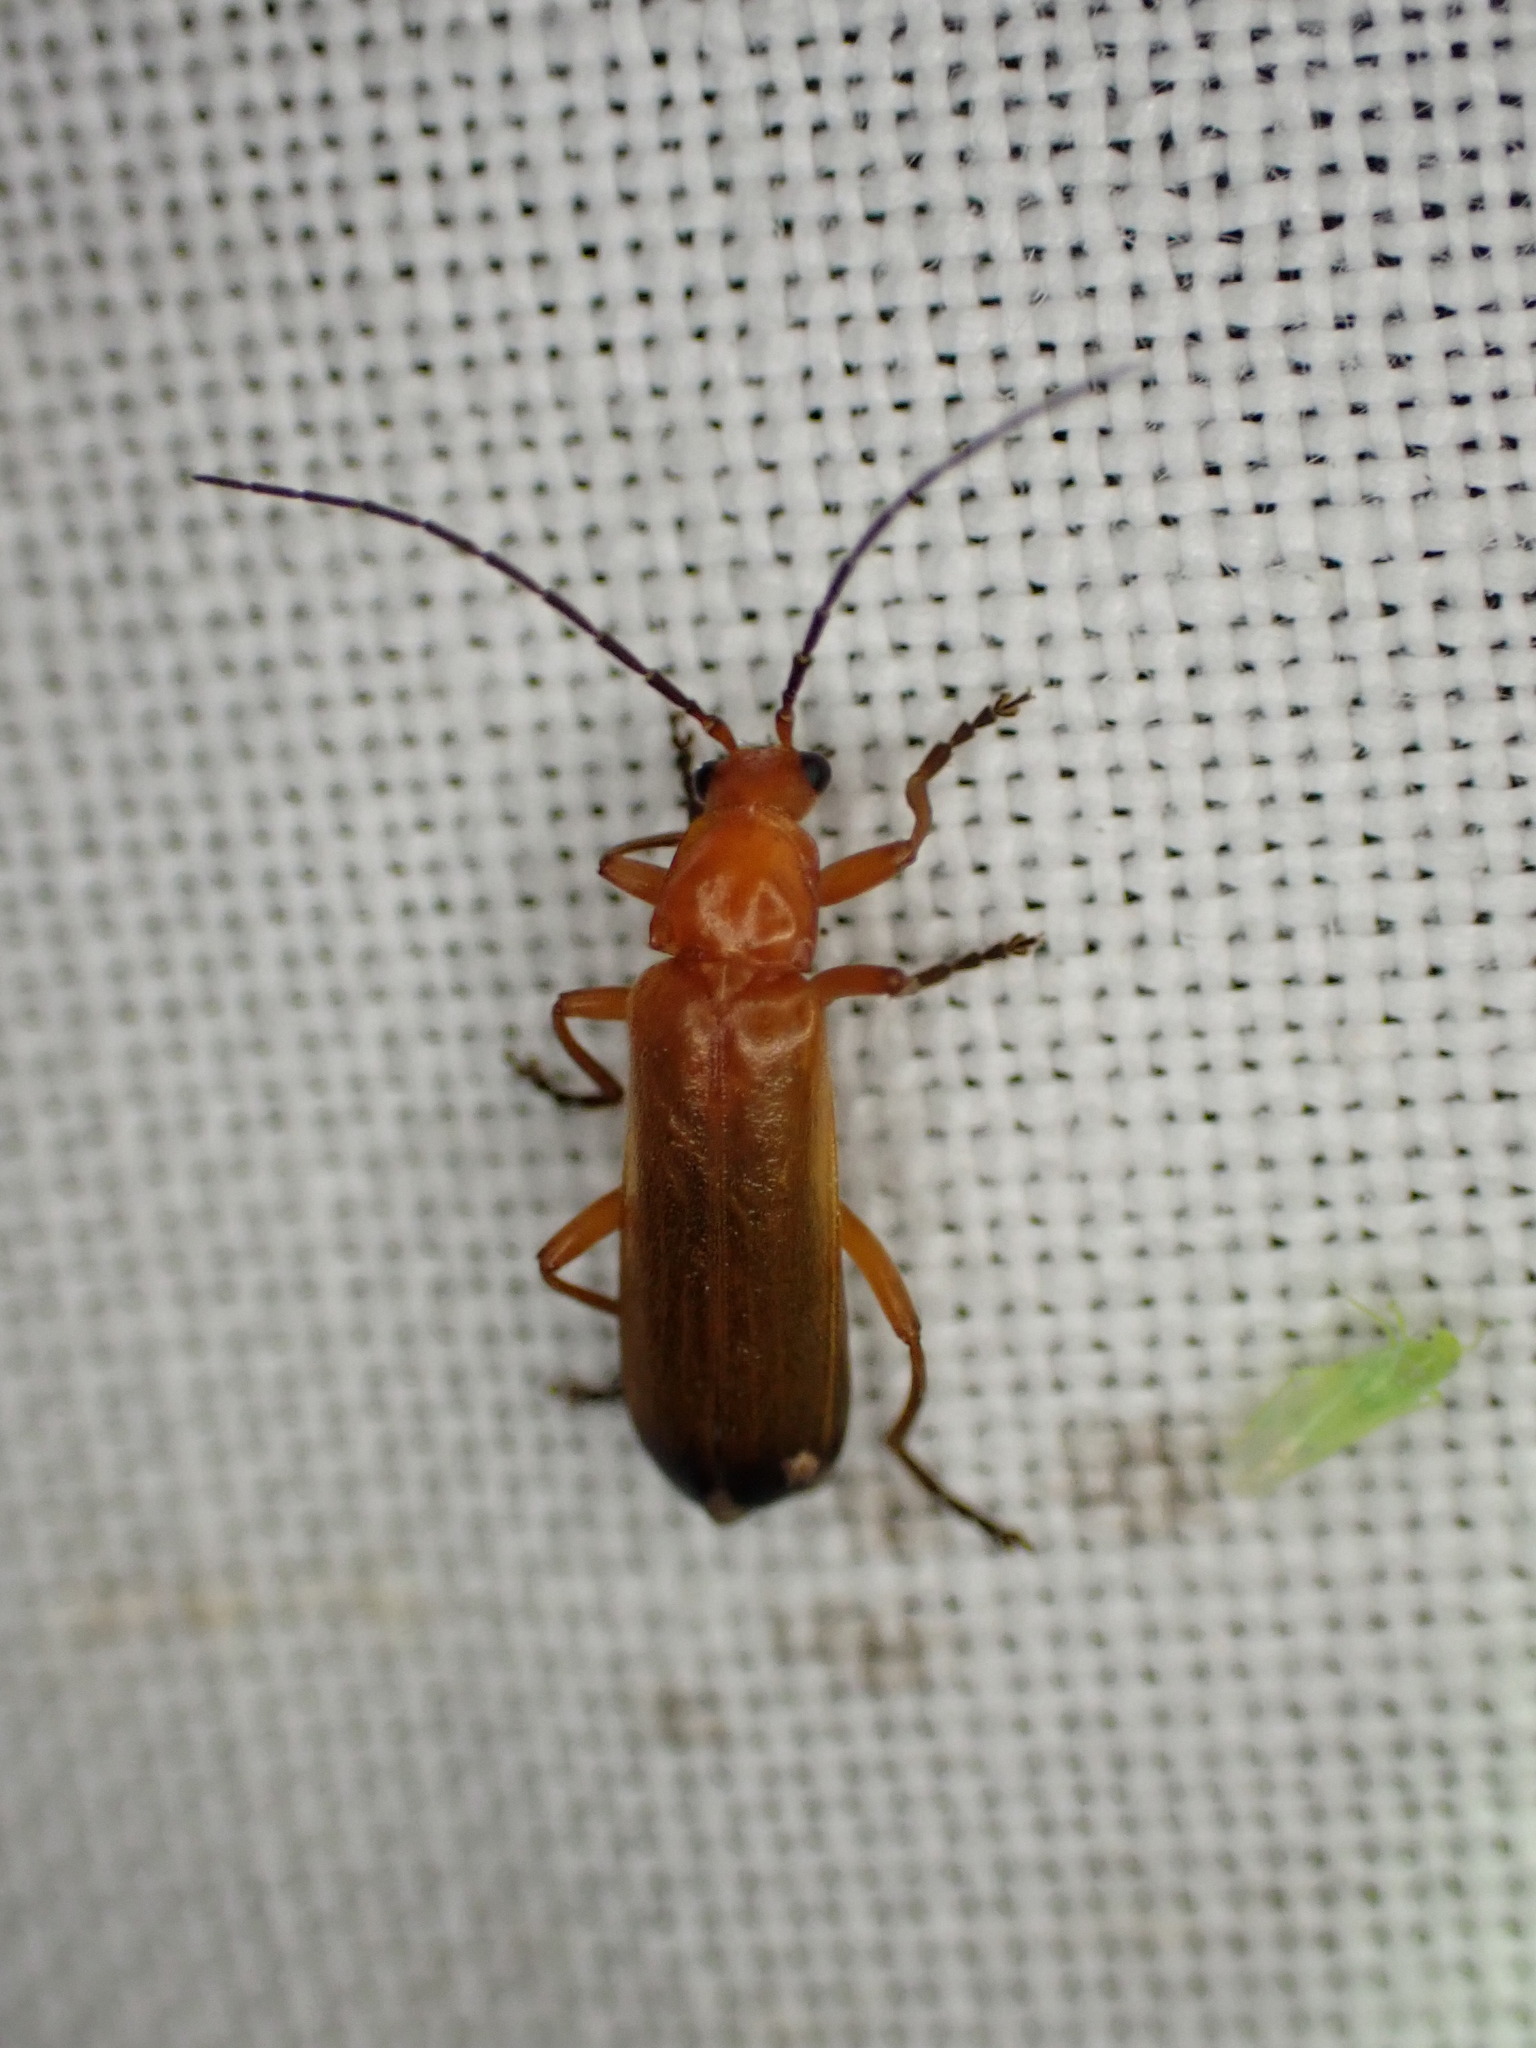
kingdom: Animalia
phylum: Arthropoda
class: Insecta
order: Coleoptera
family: Cantharidae
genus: Rhagonycha
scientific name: Rhagonycha fulva
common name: Common red soldier beetle
